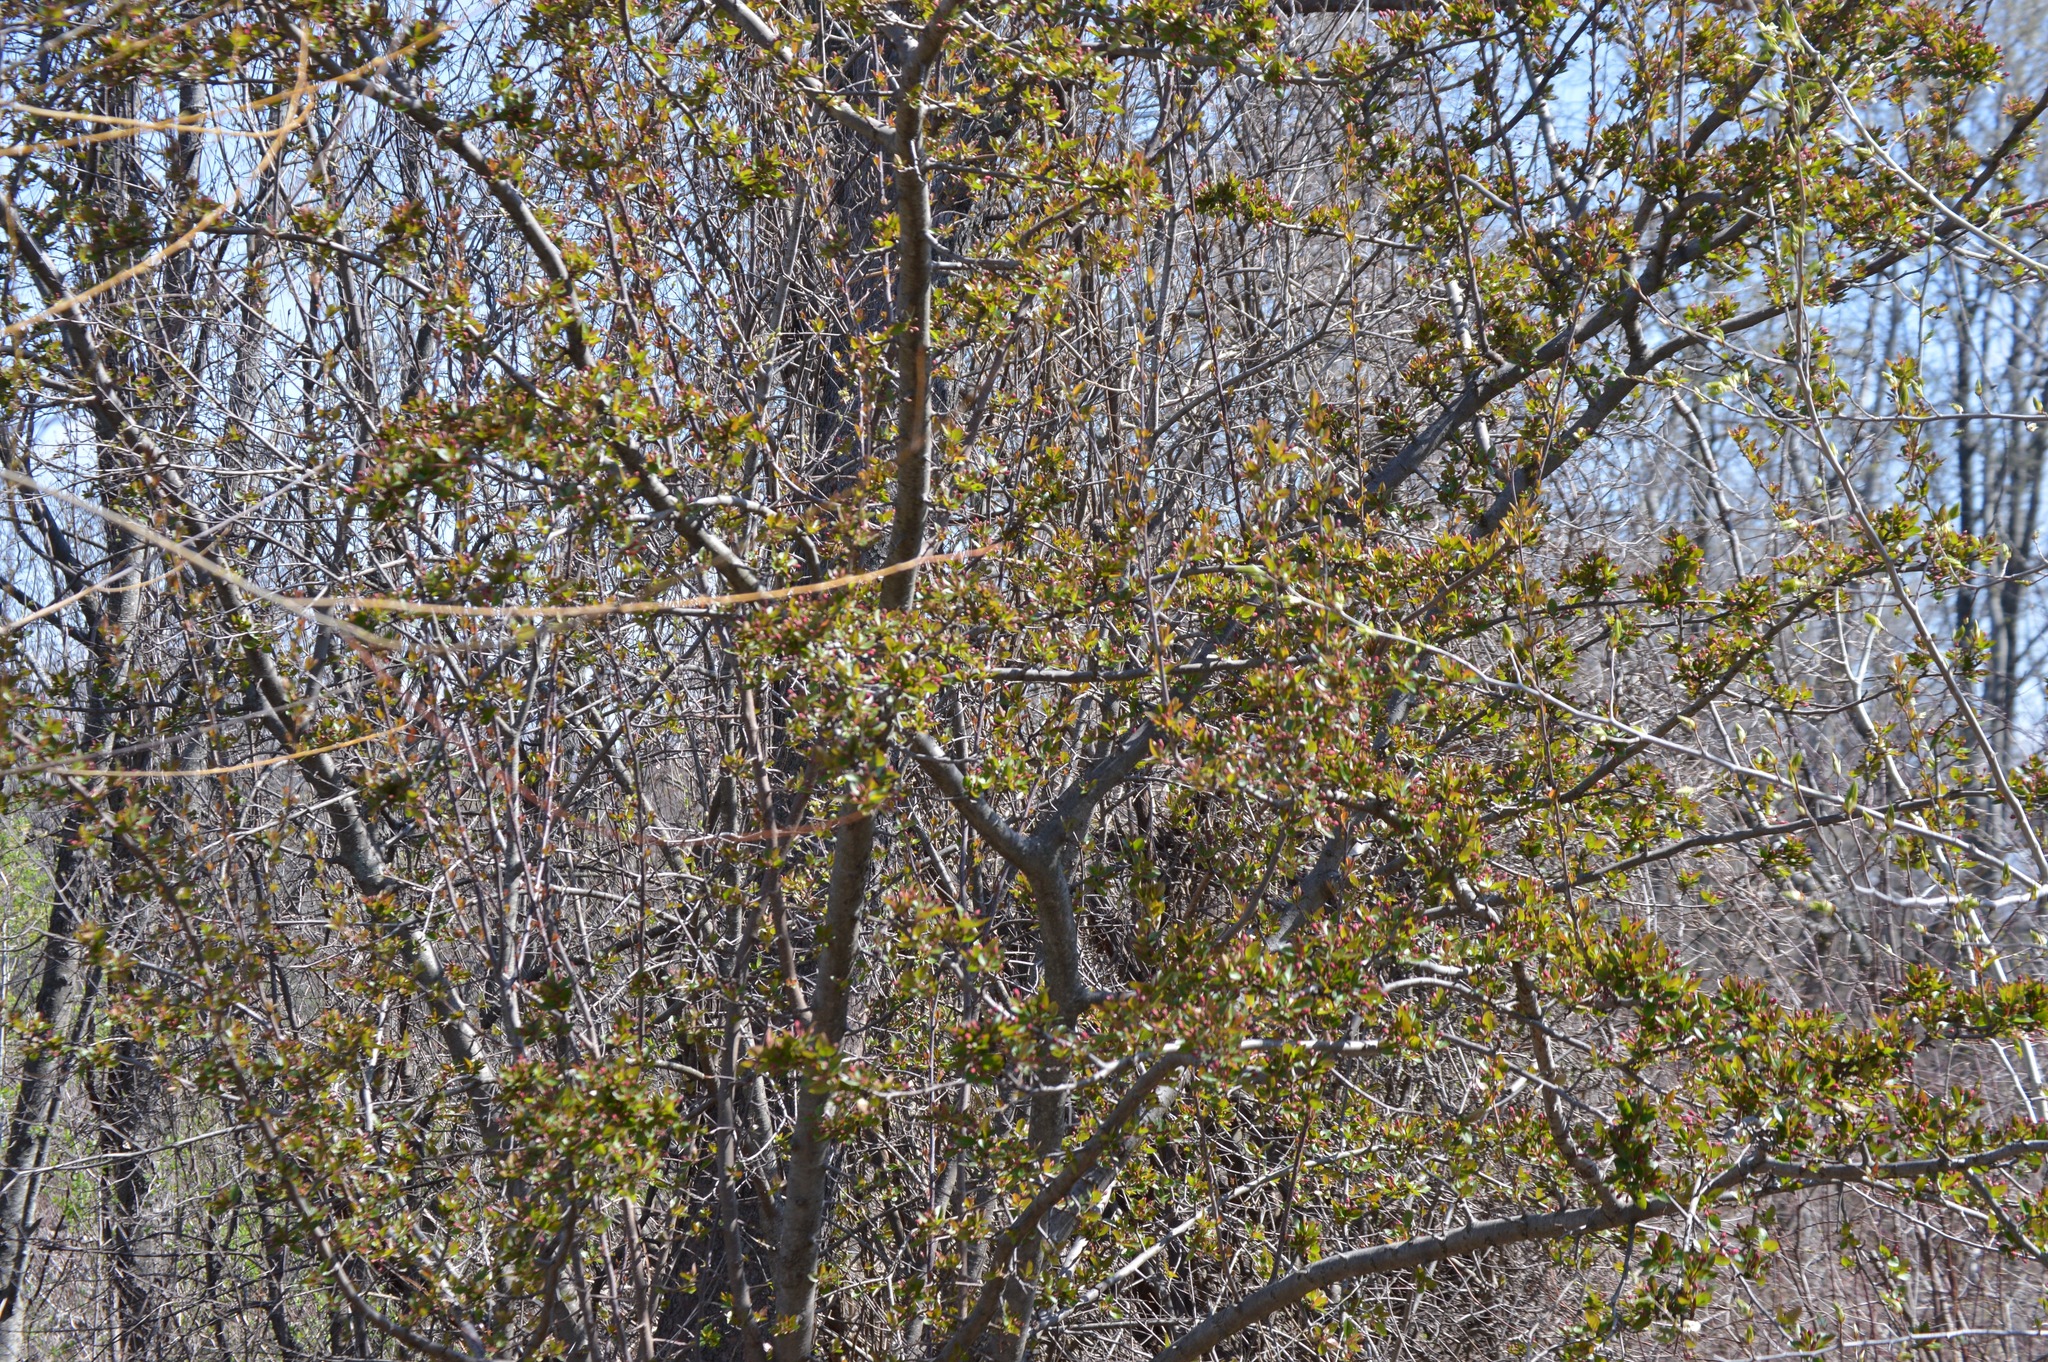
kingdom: Plantae
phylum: Tracheophyta
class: Magnoliopsida
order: Rosales
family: Rosaceae
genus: Malus
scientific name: Malus
